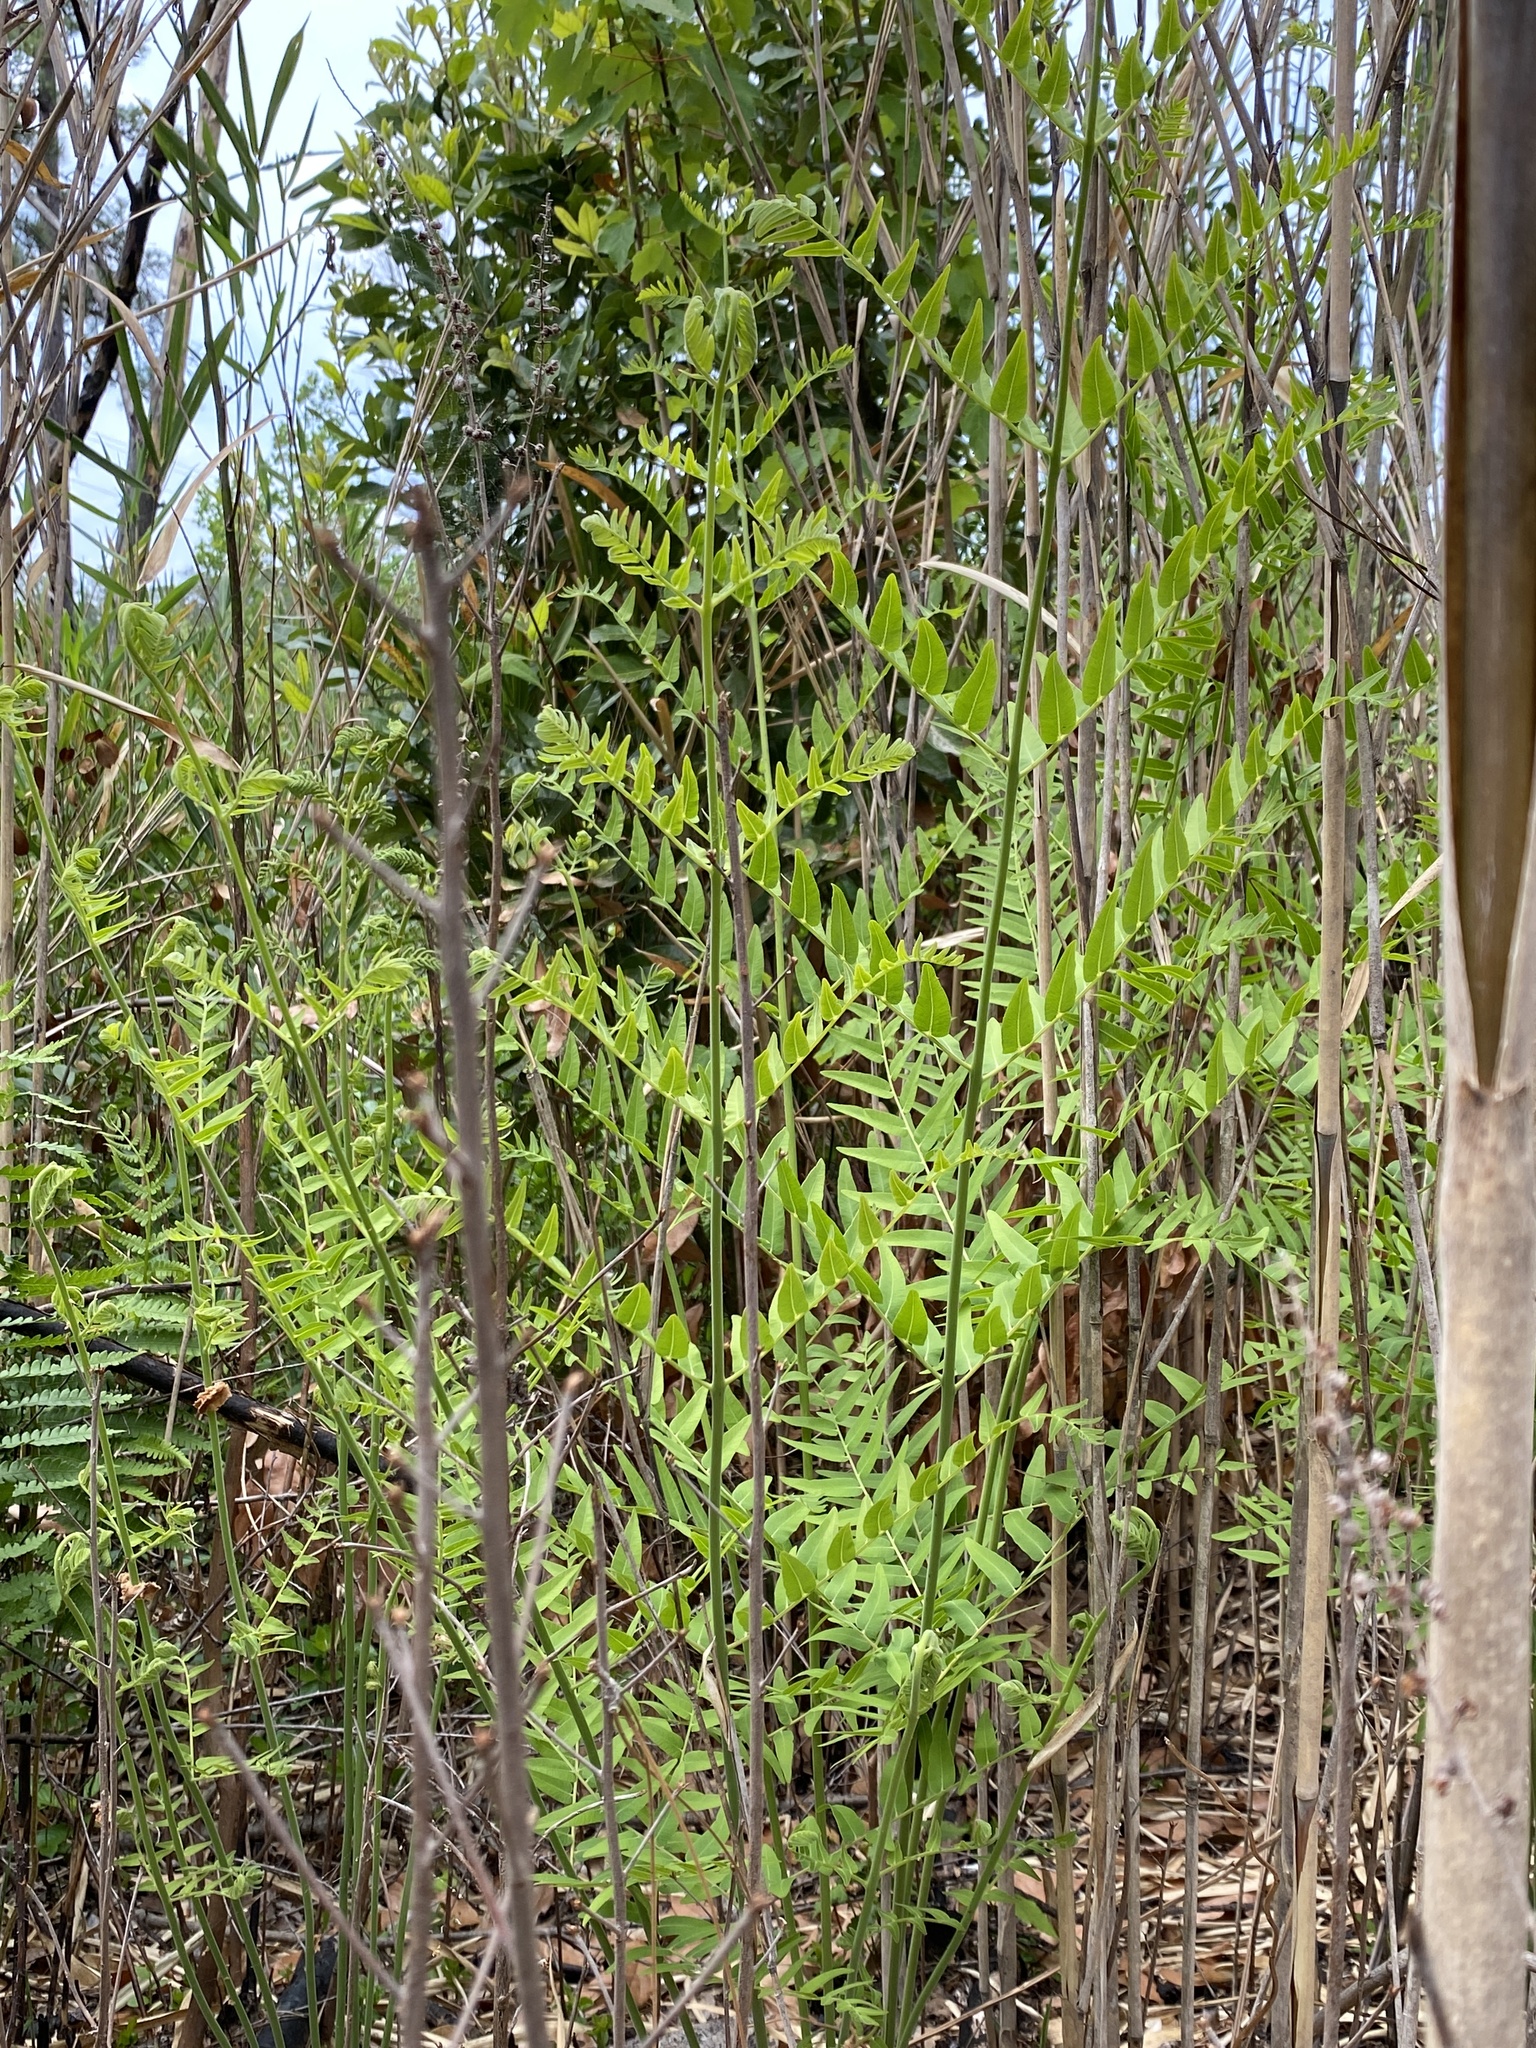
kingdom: Plantae
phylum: Tracheophyta
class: Polypodiopsida
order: Osmundales
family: Osmundaceae
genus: Osmunda
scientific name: Osmunda spectabilis
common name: American royal fern
